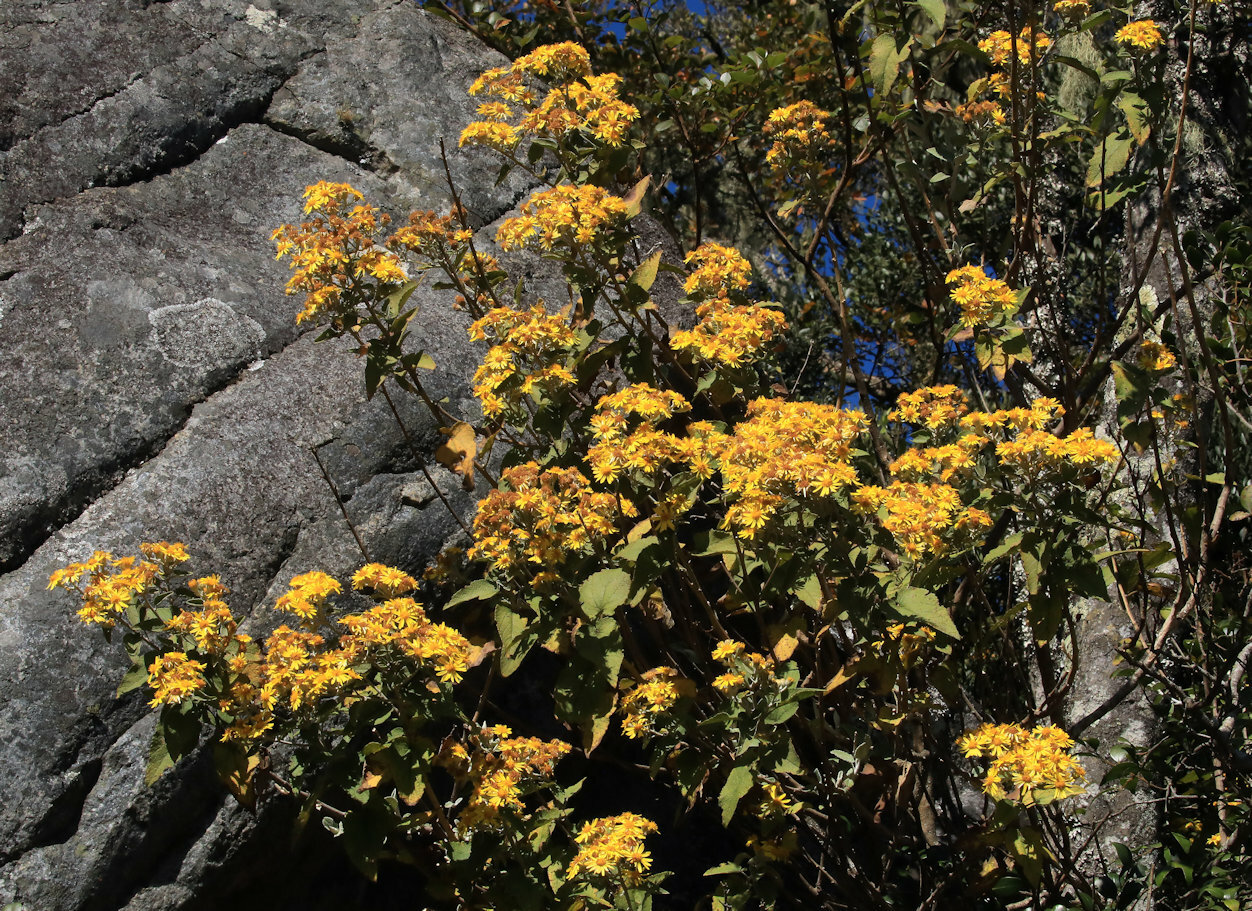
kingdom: Plantae
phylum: Tracheophyta
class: Magnoliopsida
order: Asterales
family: Asteraceae
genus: Anisopappus
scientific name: Anisopappus junodii
